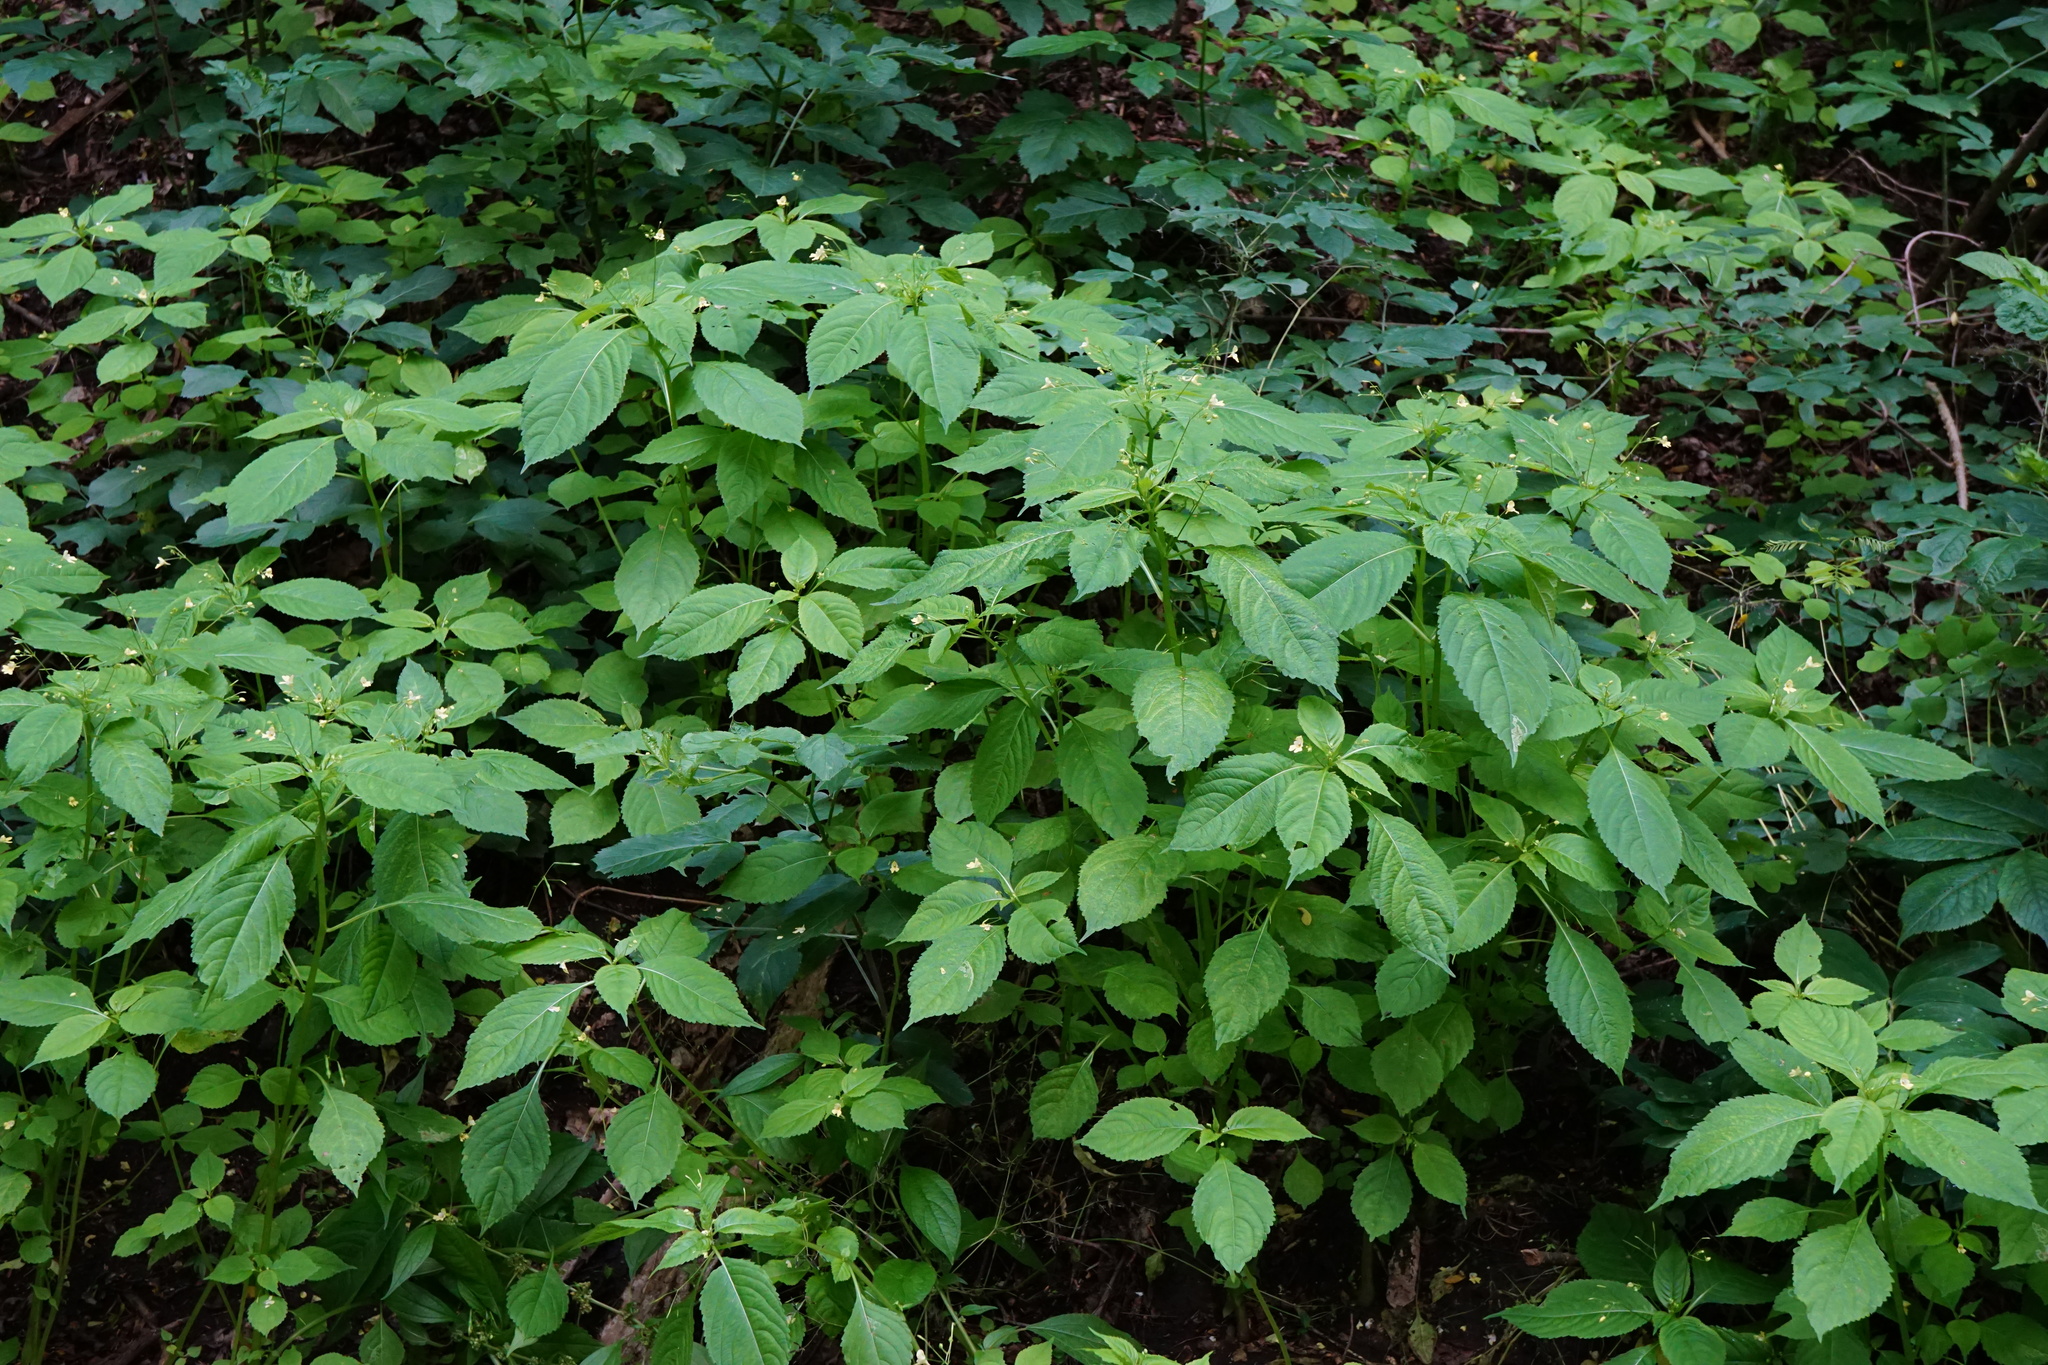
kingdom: Plantae
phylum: Tracheophyta
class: Magnoliopsida
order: Ericales
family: Balsaminaceae
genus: Impatiens
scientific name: Impatiens parviflora
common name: Small balsam
